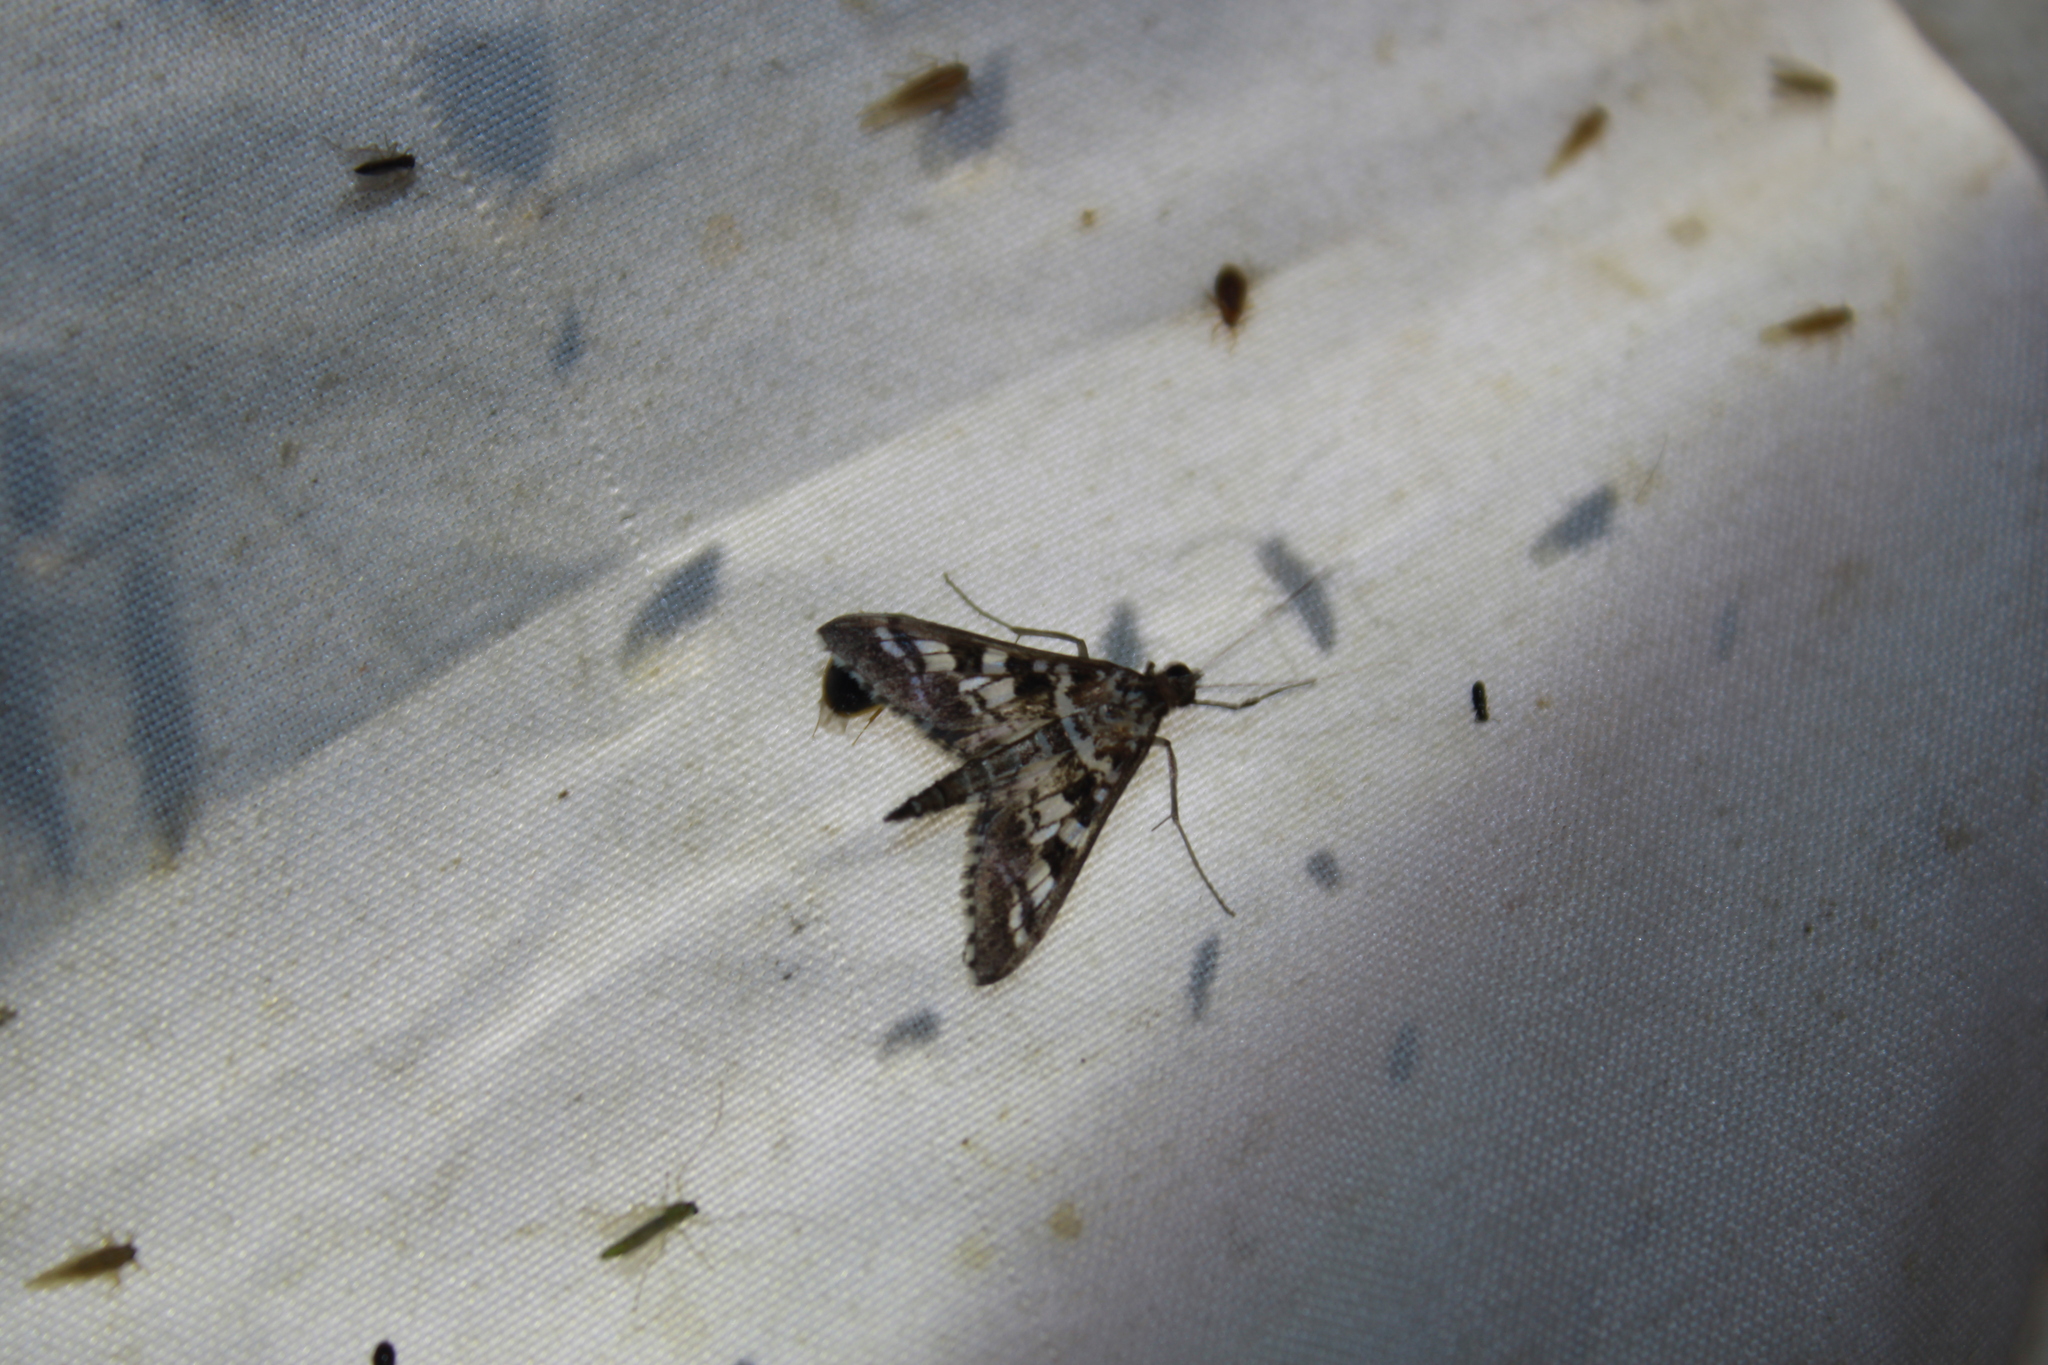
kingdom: Animalia
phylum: Arthropoda
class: Insecta
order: Lepidoptera
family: Crambidae
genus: Epipagis
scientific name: Epipagis forsythae
